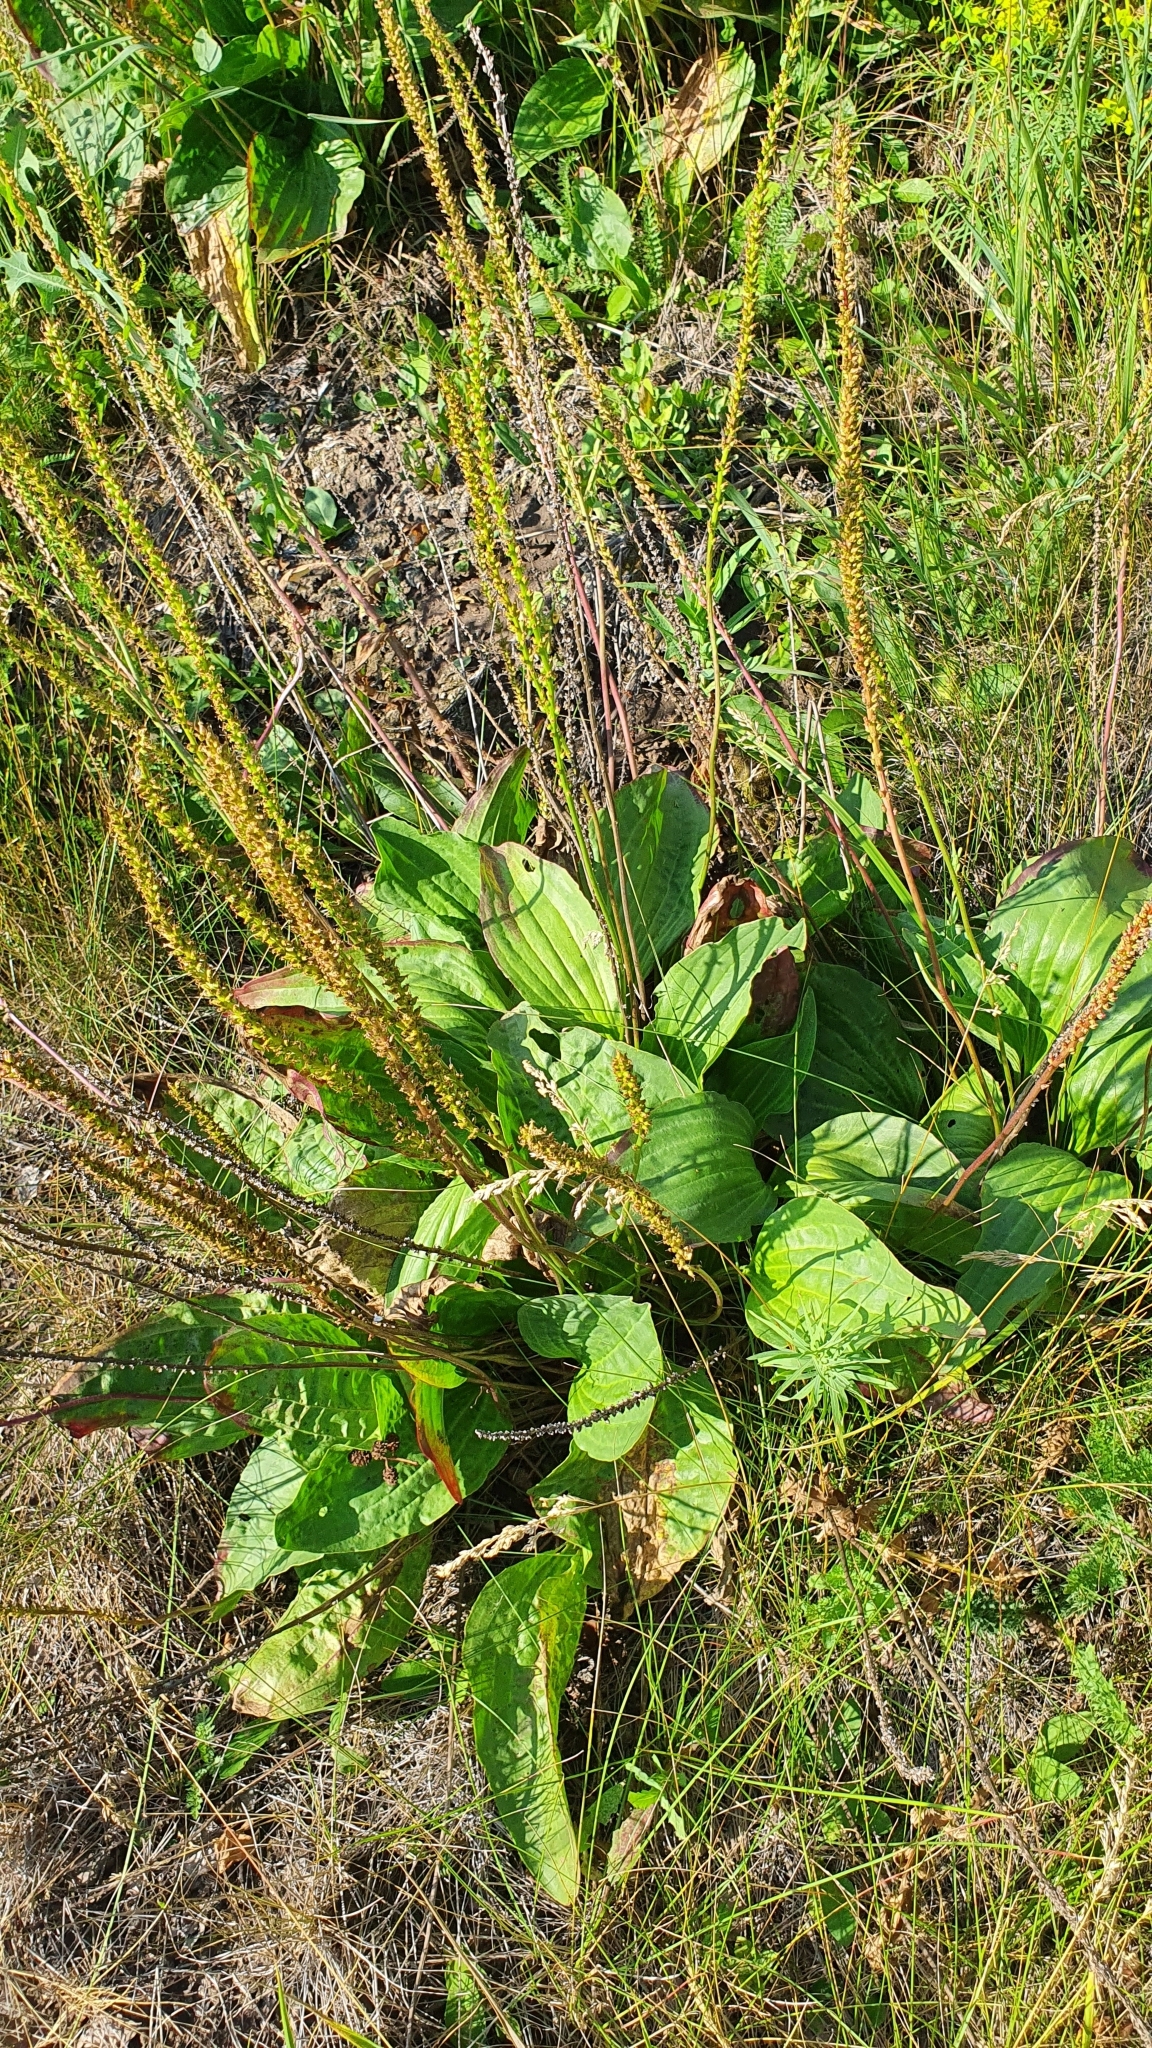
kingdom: Plantae
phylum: Tracheophyta
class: Magnoliopsida
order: Lamiales
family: Plantaginaceae
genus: Plantago
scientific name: Plantago cornuti
